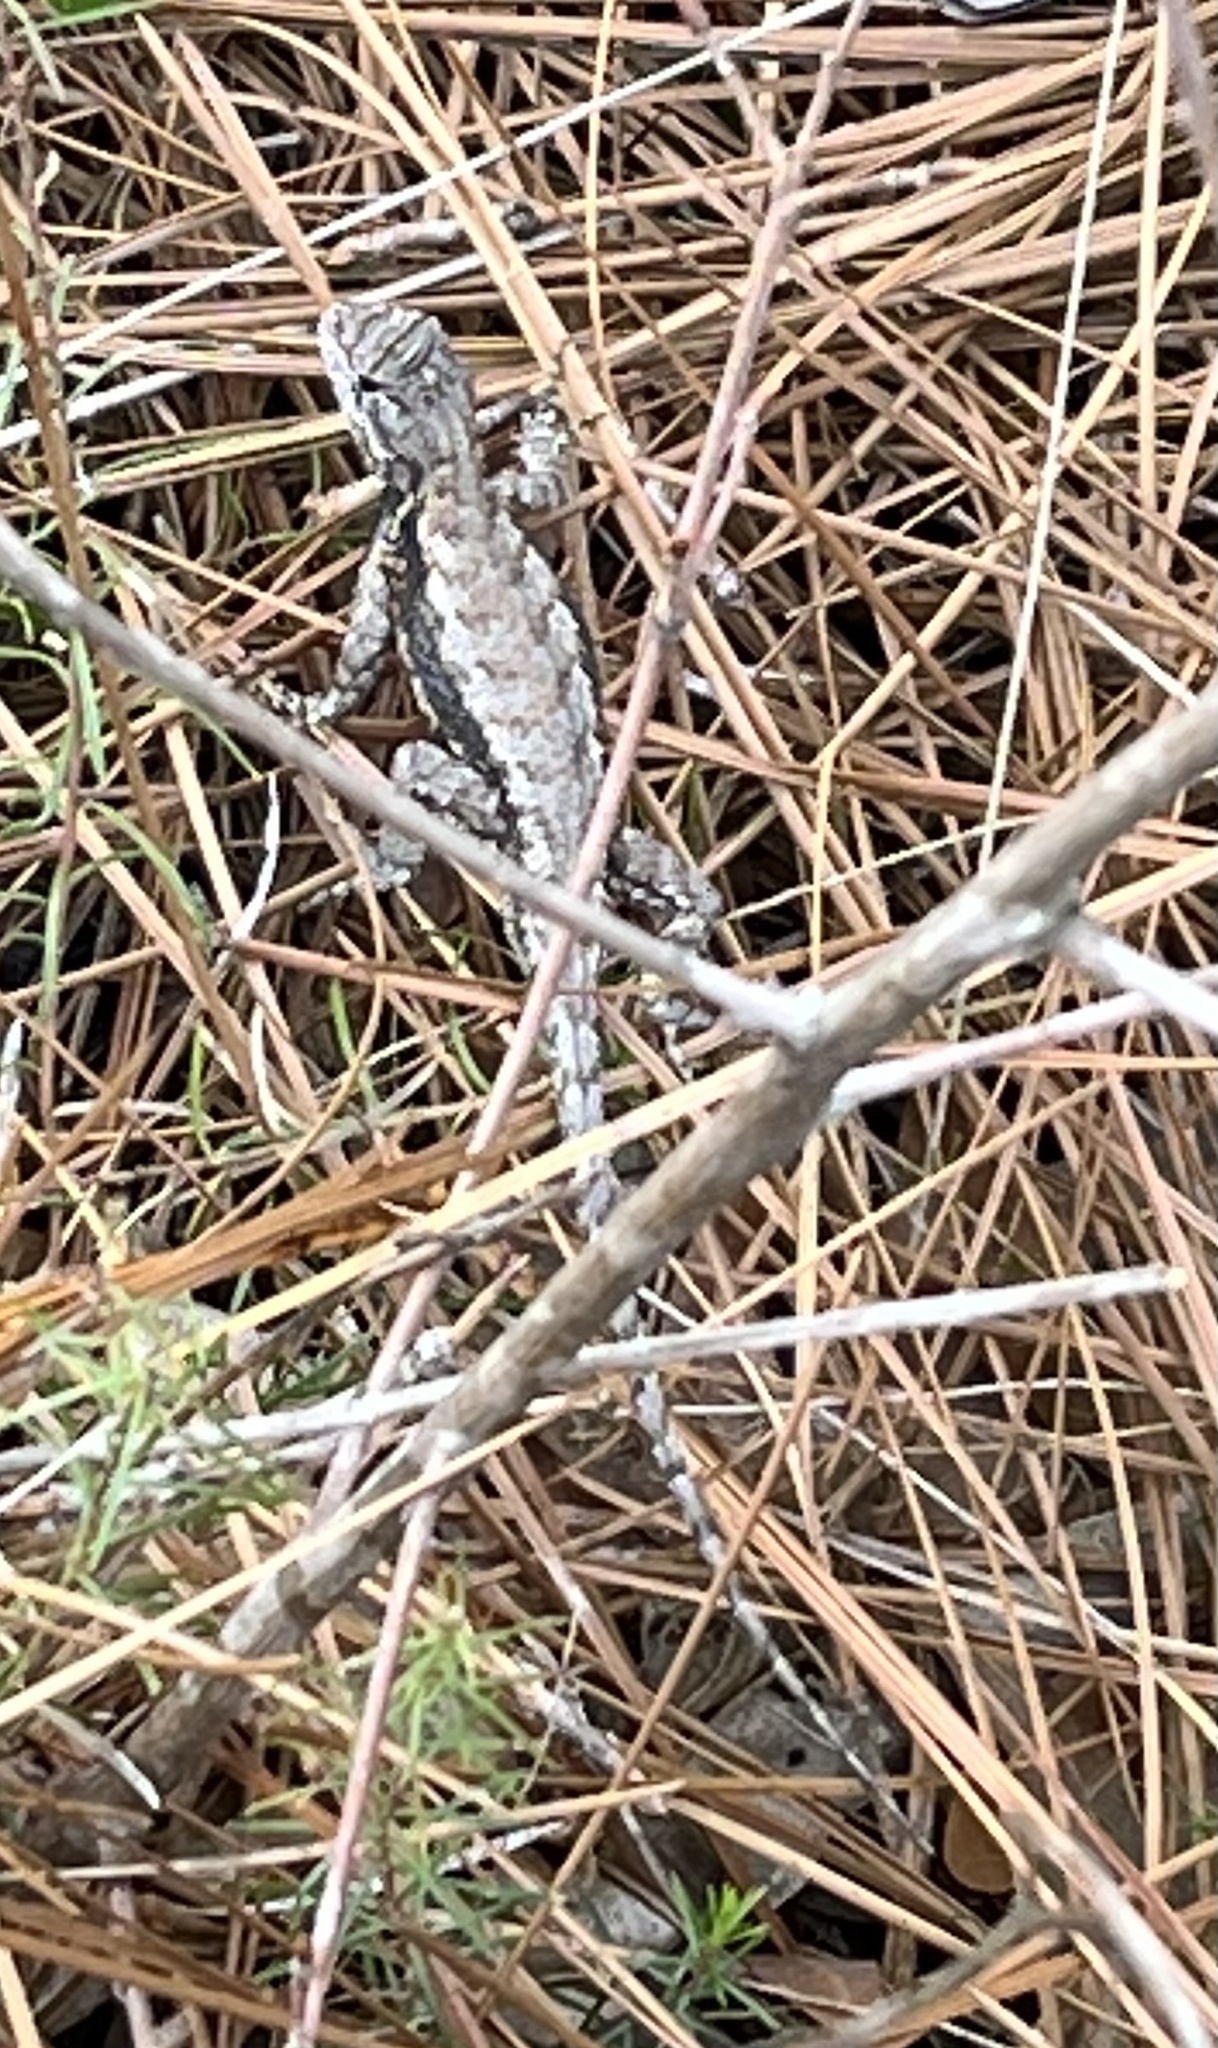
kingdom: Animalia
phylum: Chordata
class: Squamata
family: Phrynosomatidae
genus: Sceloporus
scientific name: Sceloporus undulatus
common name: Eastern fence lizard
